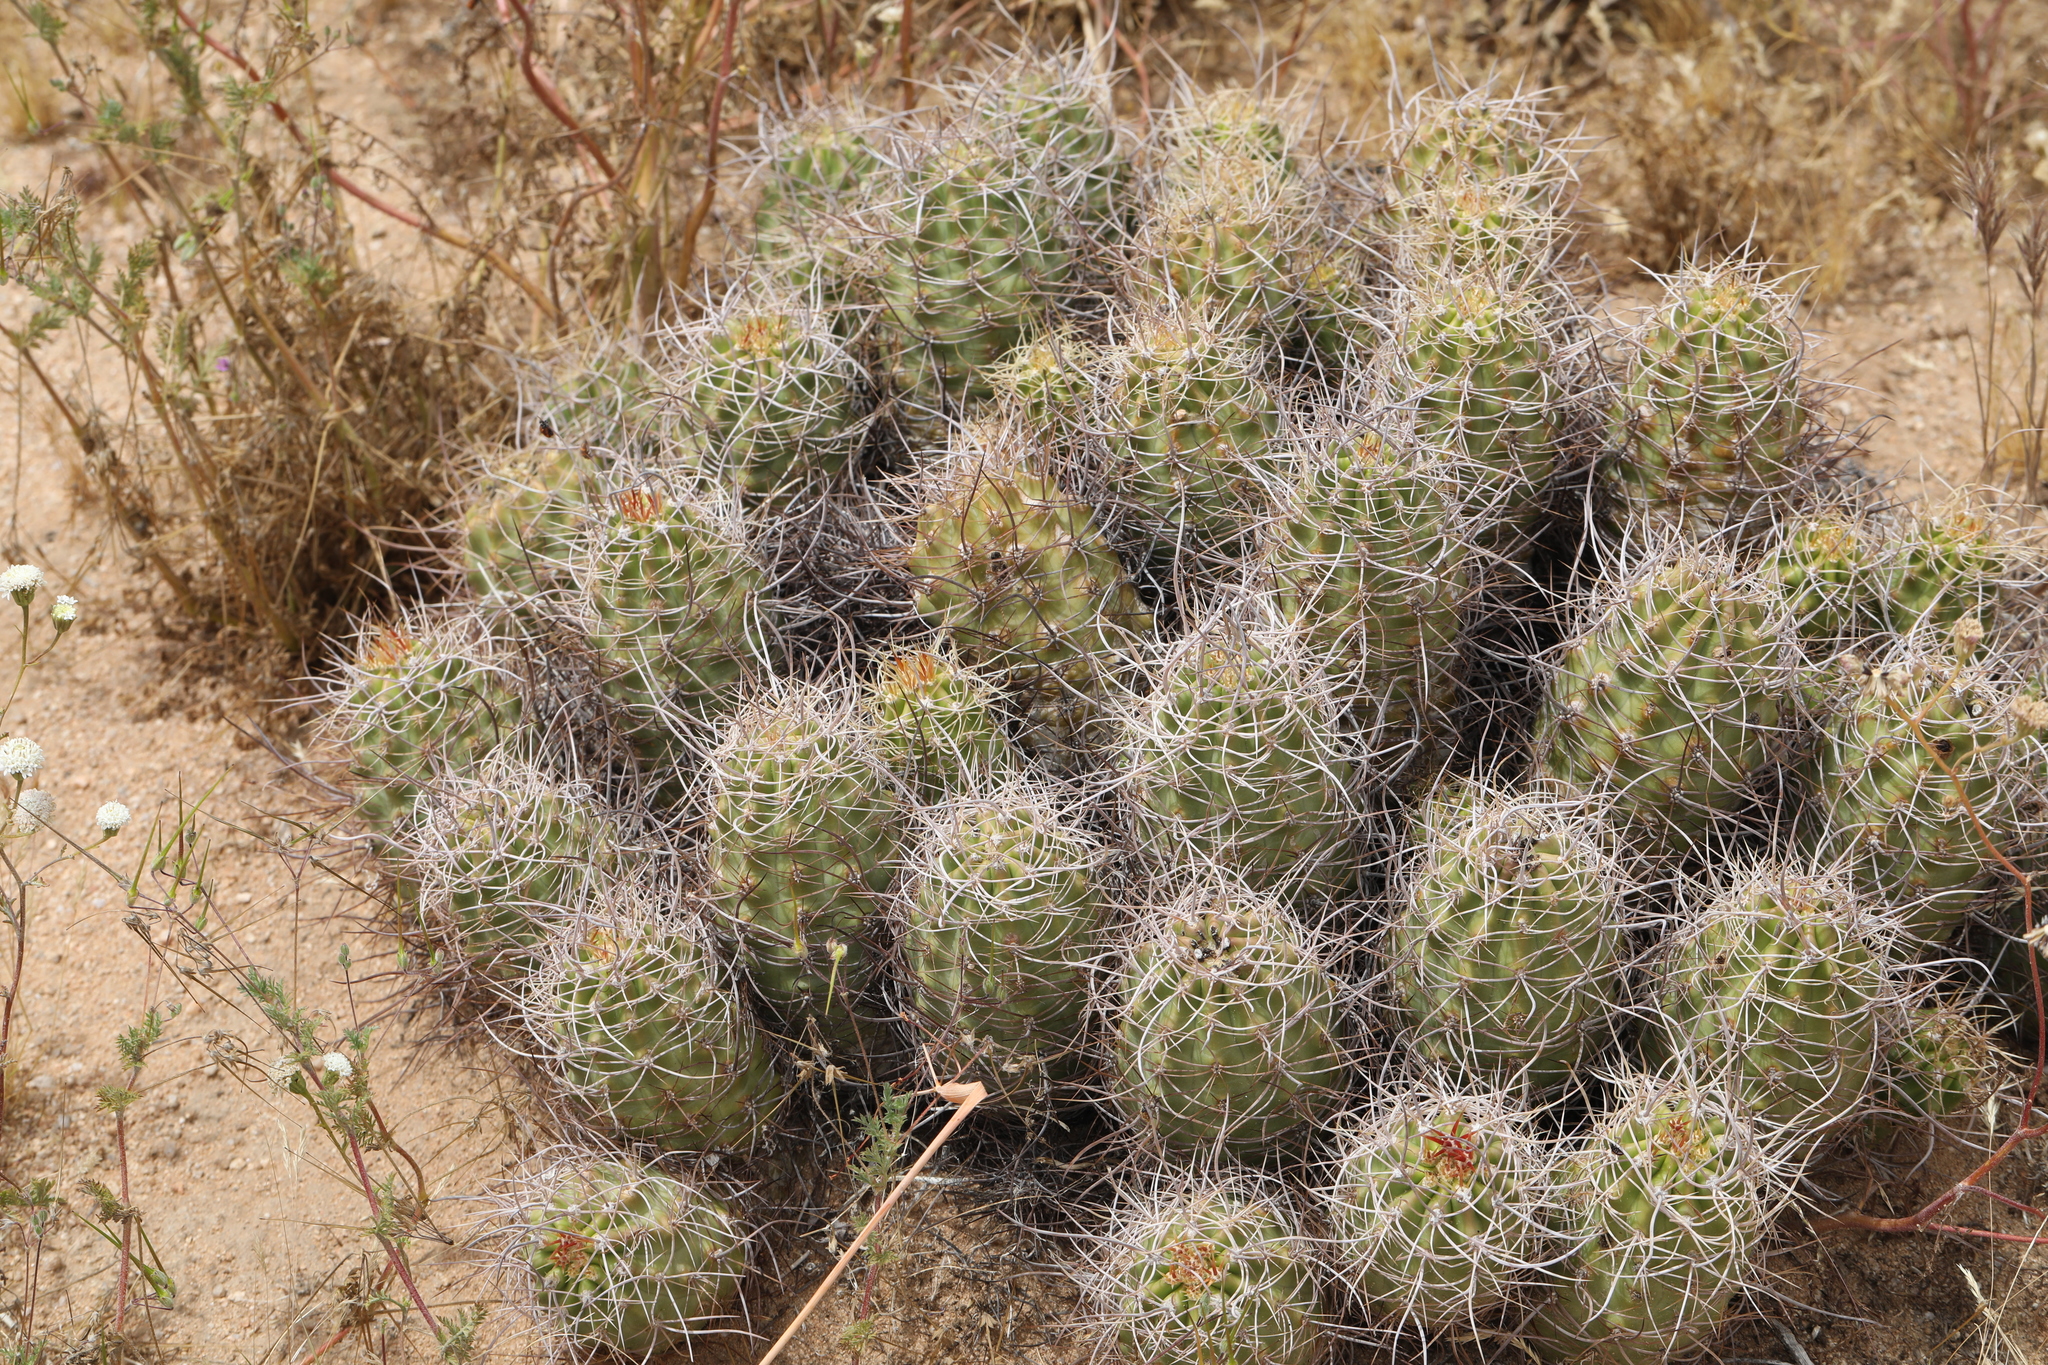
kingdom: Plantae
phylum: Tracheophyta
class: Magnoliopsida
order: Caryophyllales
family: Cactaceae
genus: Echinocereus
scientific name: Echinocereus triglochidiatus
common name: Claretcup hedgehog
